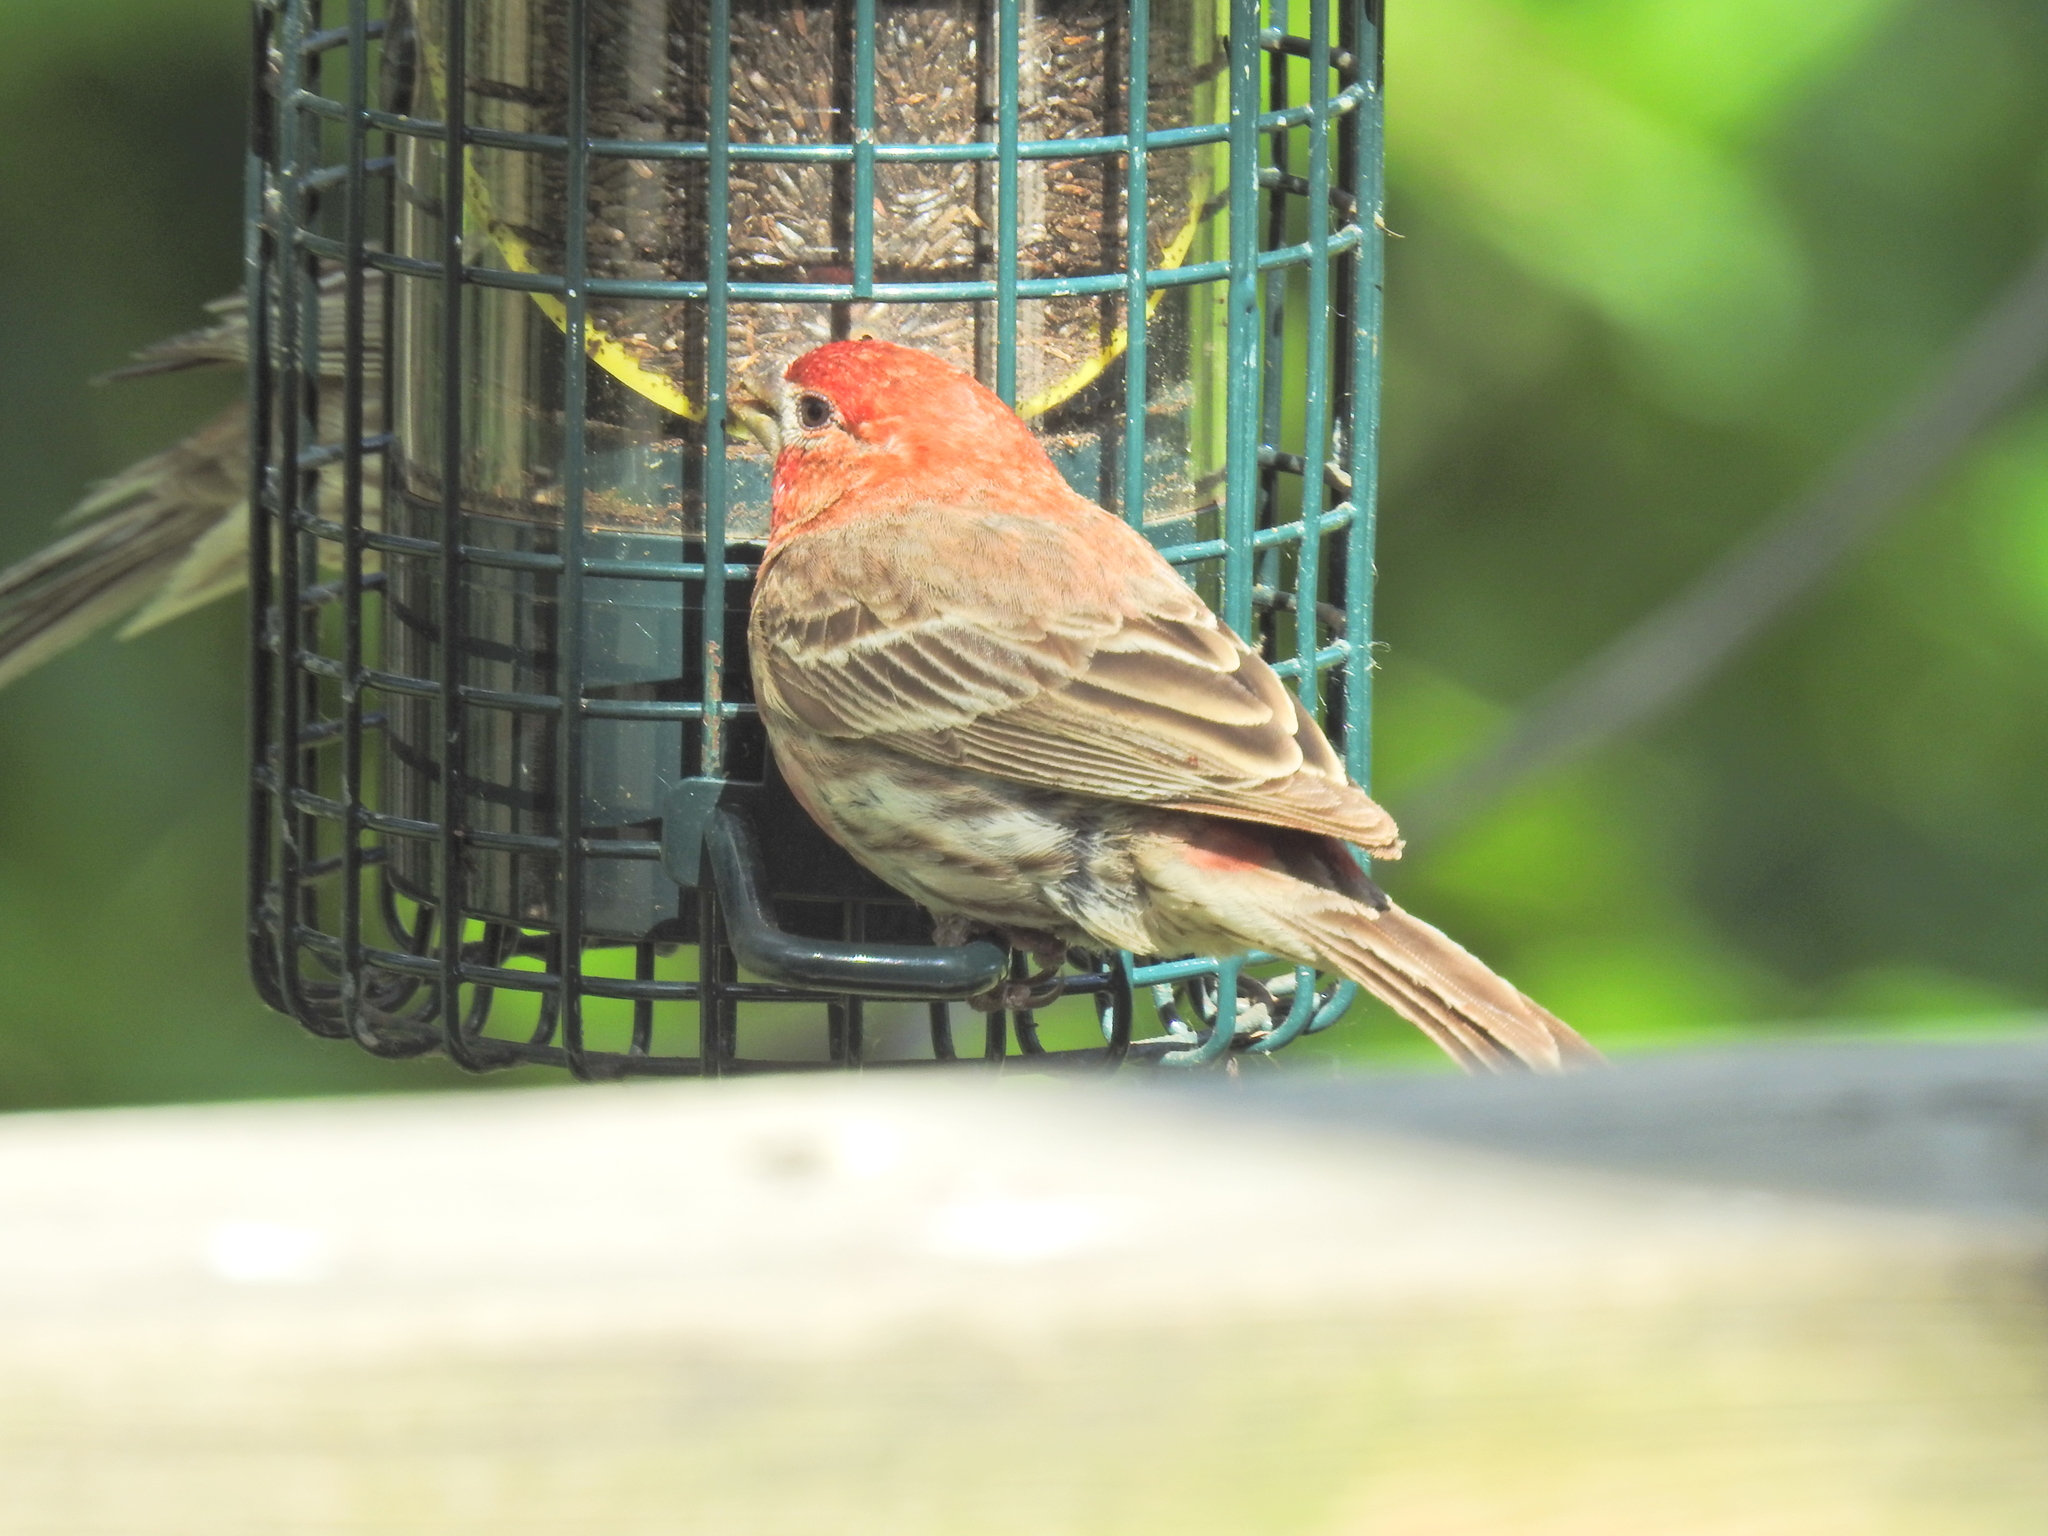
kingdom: Animalia
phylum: Chordata
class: Aves
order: Passeriformes
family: Fringillidae
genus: Haemorhous
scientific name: Haemorhous mexicanus
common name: House finch
